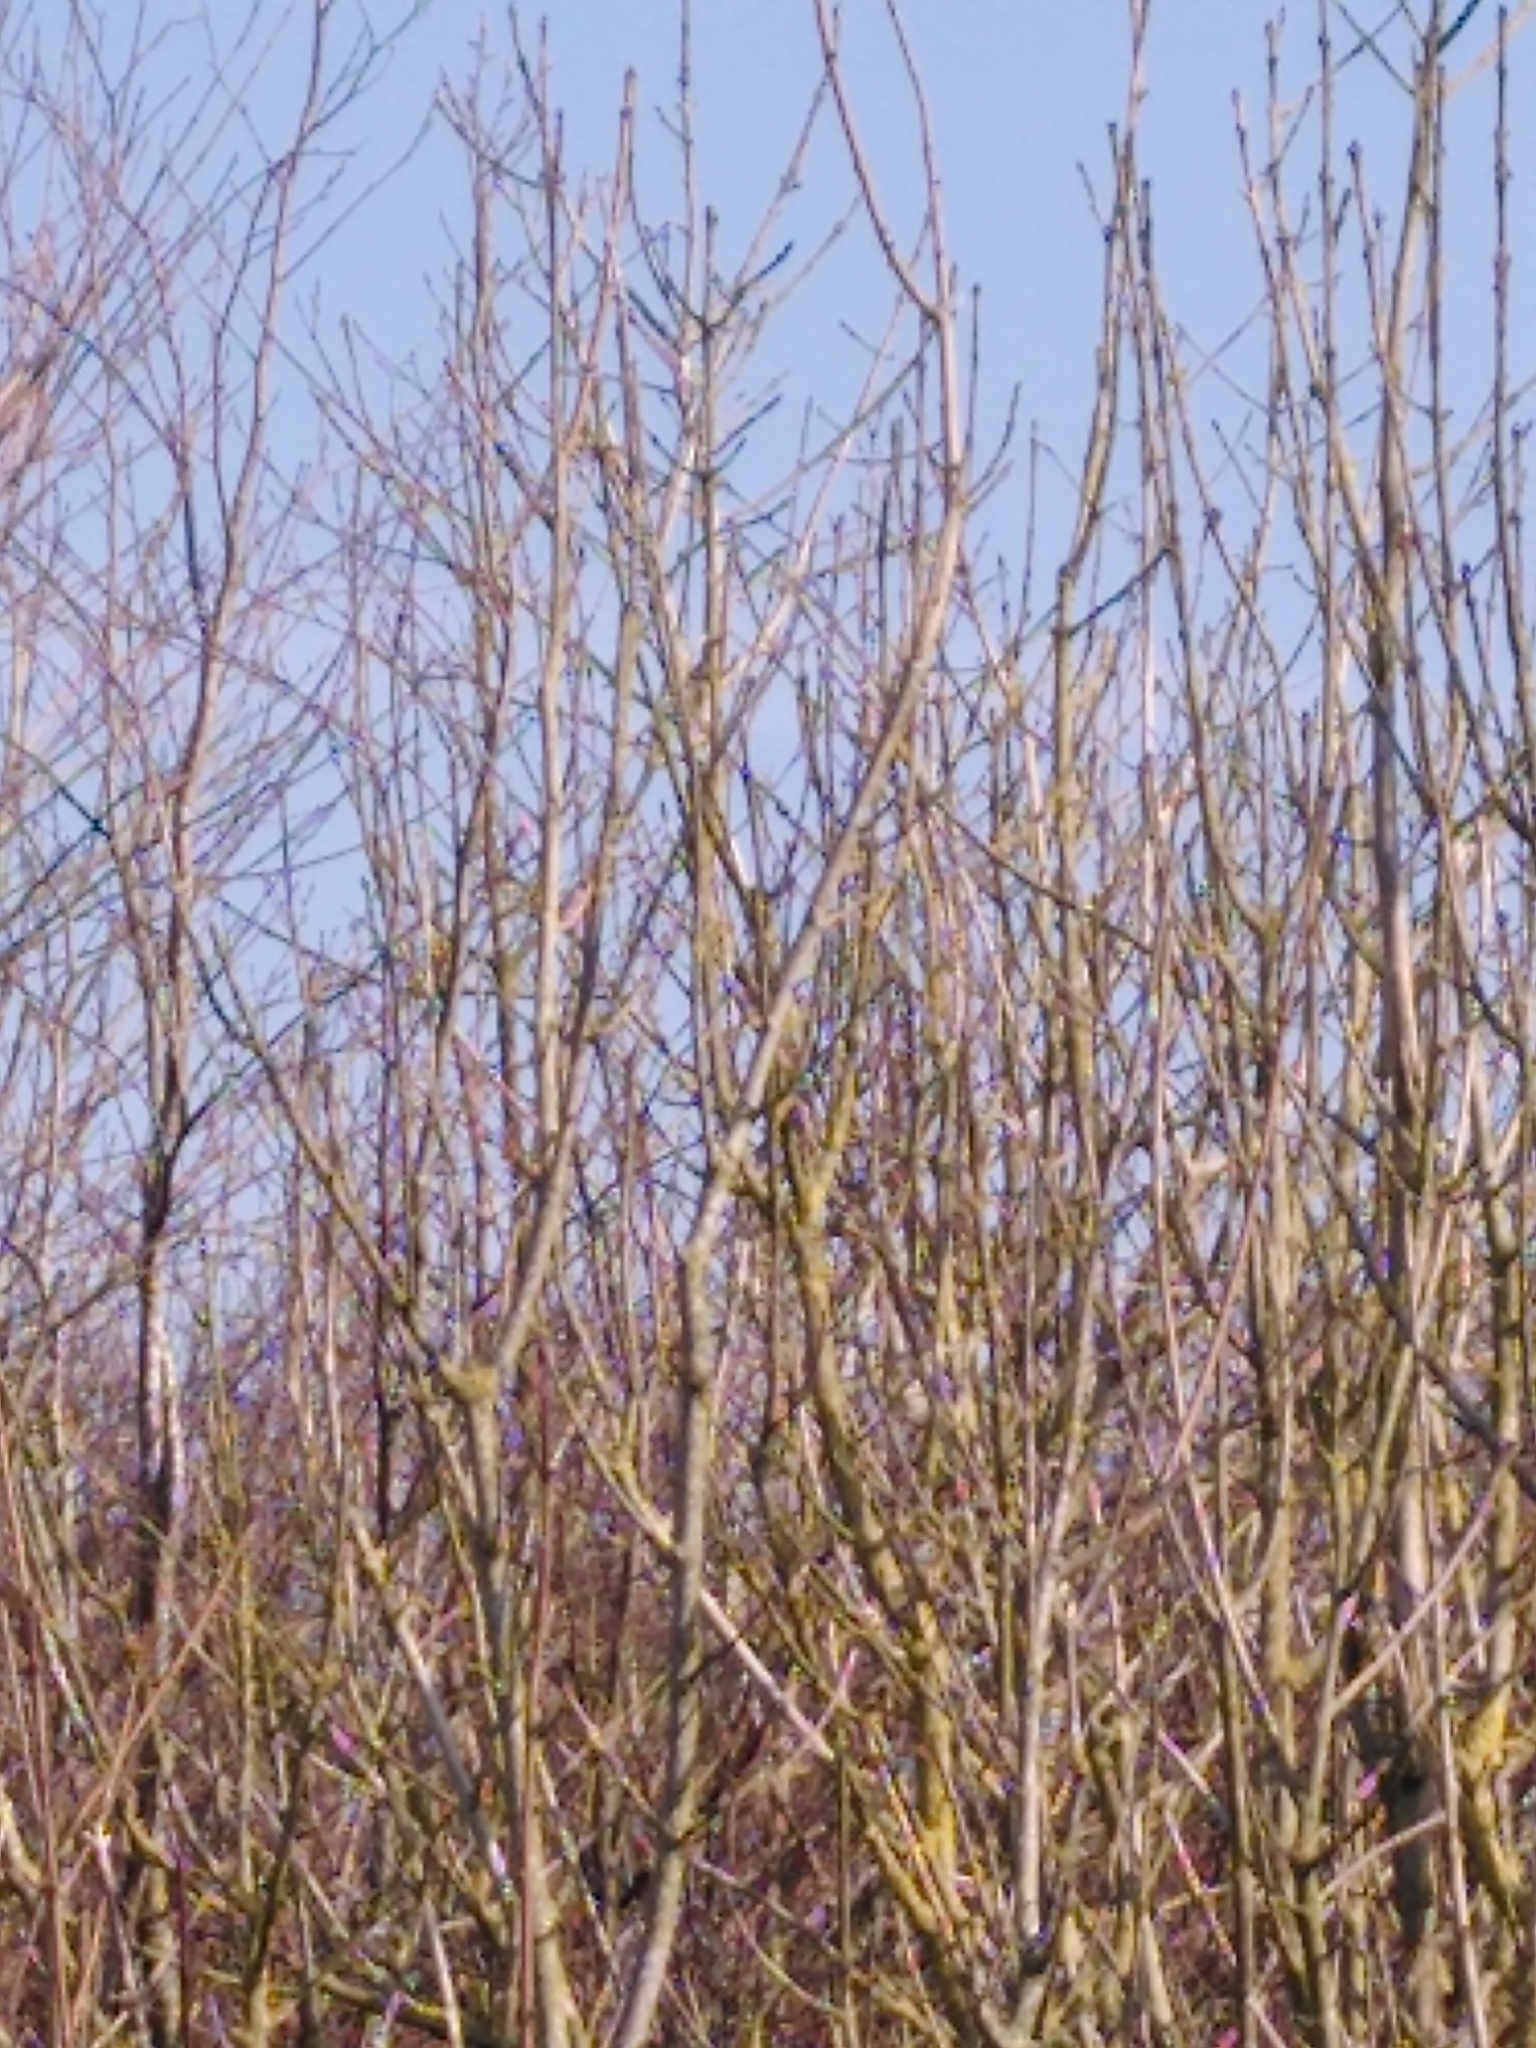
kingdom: Animalia
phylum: Chordata
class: Aves
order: Passeriformes
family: Muscicapidae
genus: Erithacus
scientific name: Erithacus rubecula
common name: European robin
